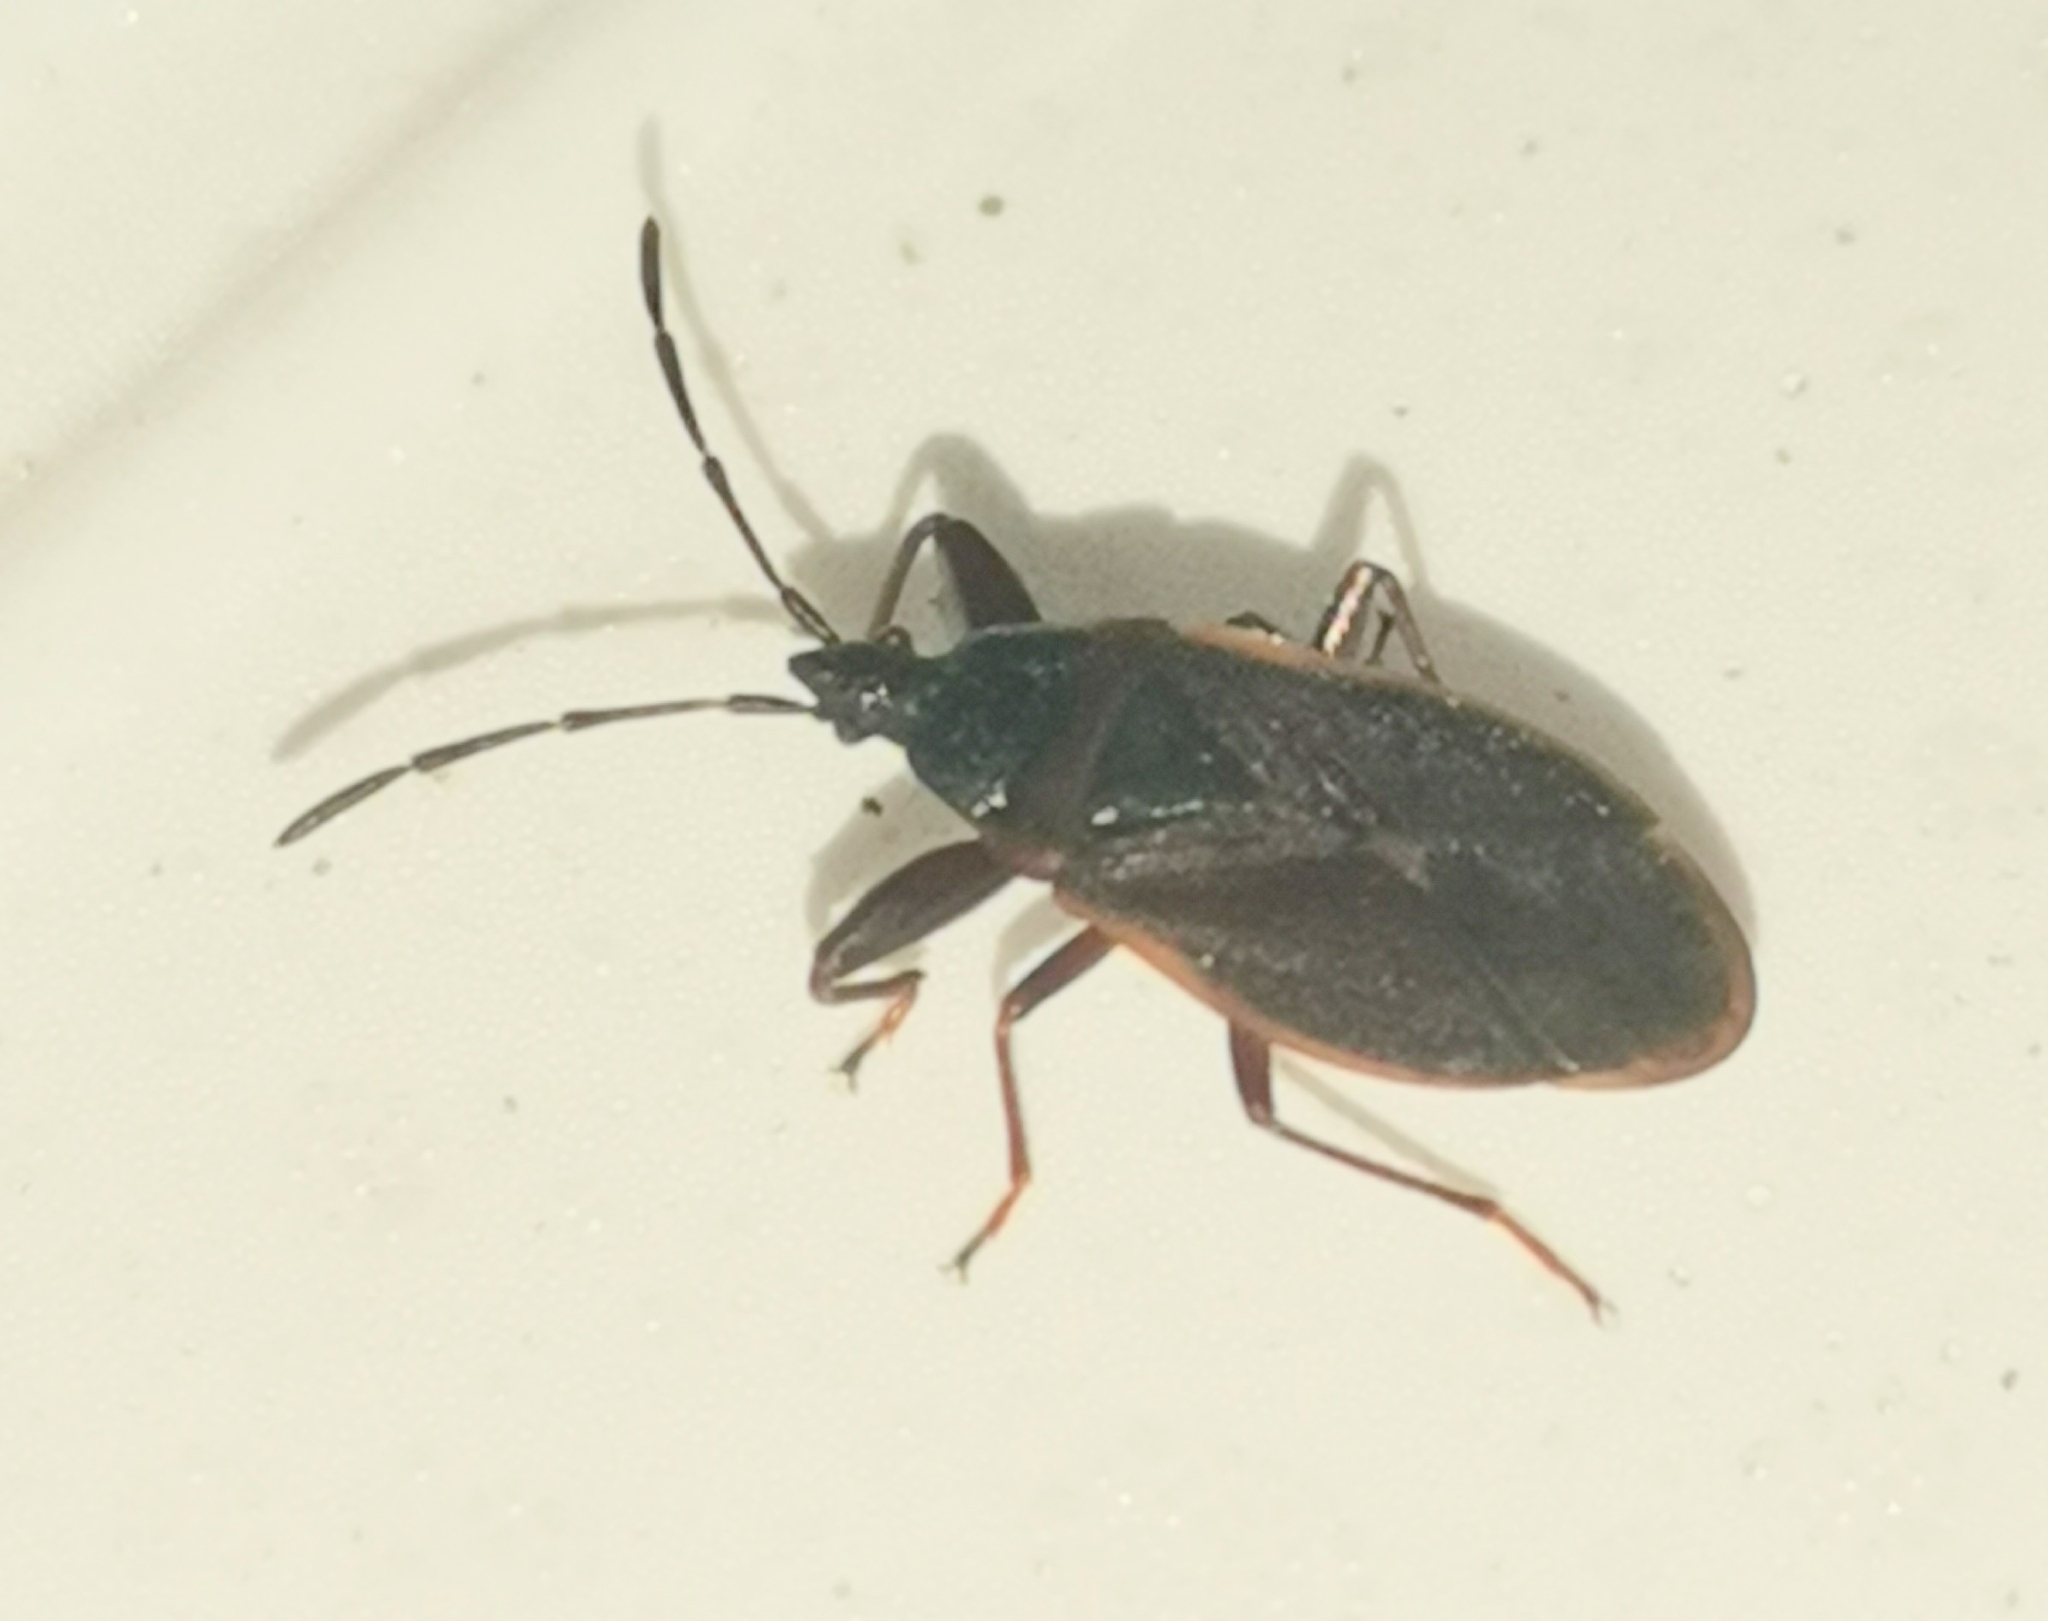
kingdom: Animalia
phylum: Arthropoda
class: Insecta
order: Hemiptera
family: Rhyparochromidae
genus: Gastrodes
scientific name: Gastrodes grossipes
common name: Pine cone bug
